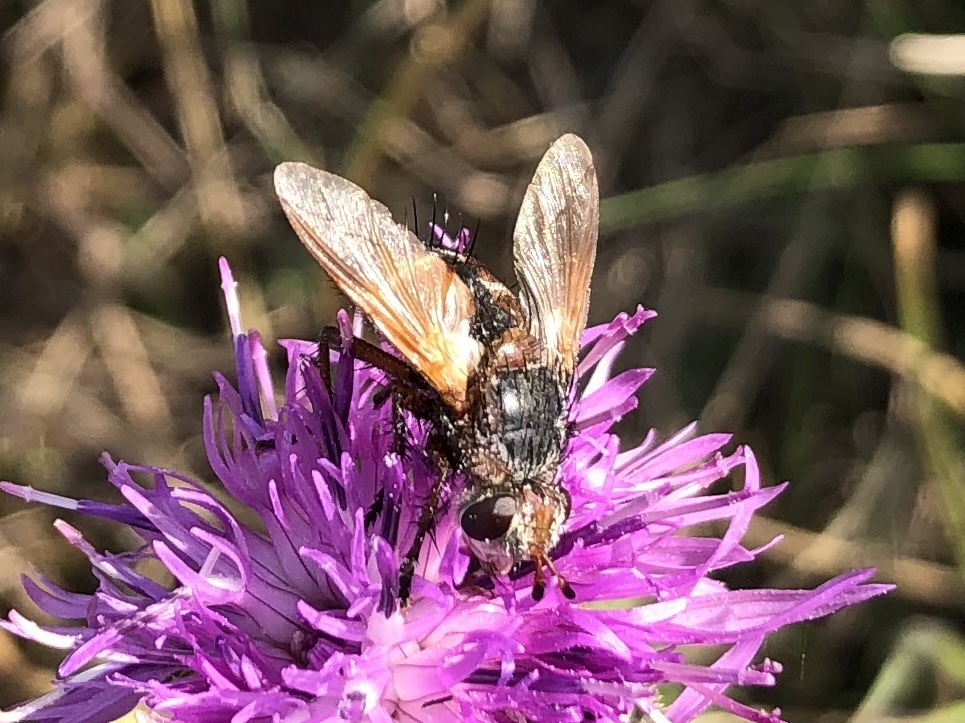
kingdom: Animalia
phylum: Arthropoda
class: Insecta
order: Diptera
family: Tachinidae
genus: Tachina
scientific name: Tachina magnicornis
